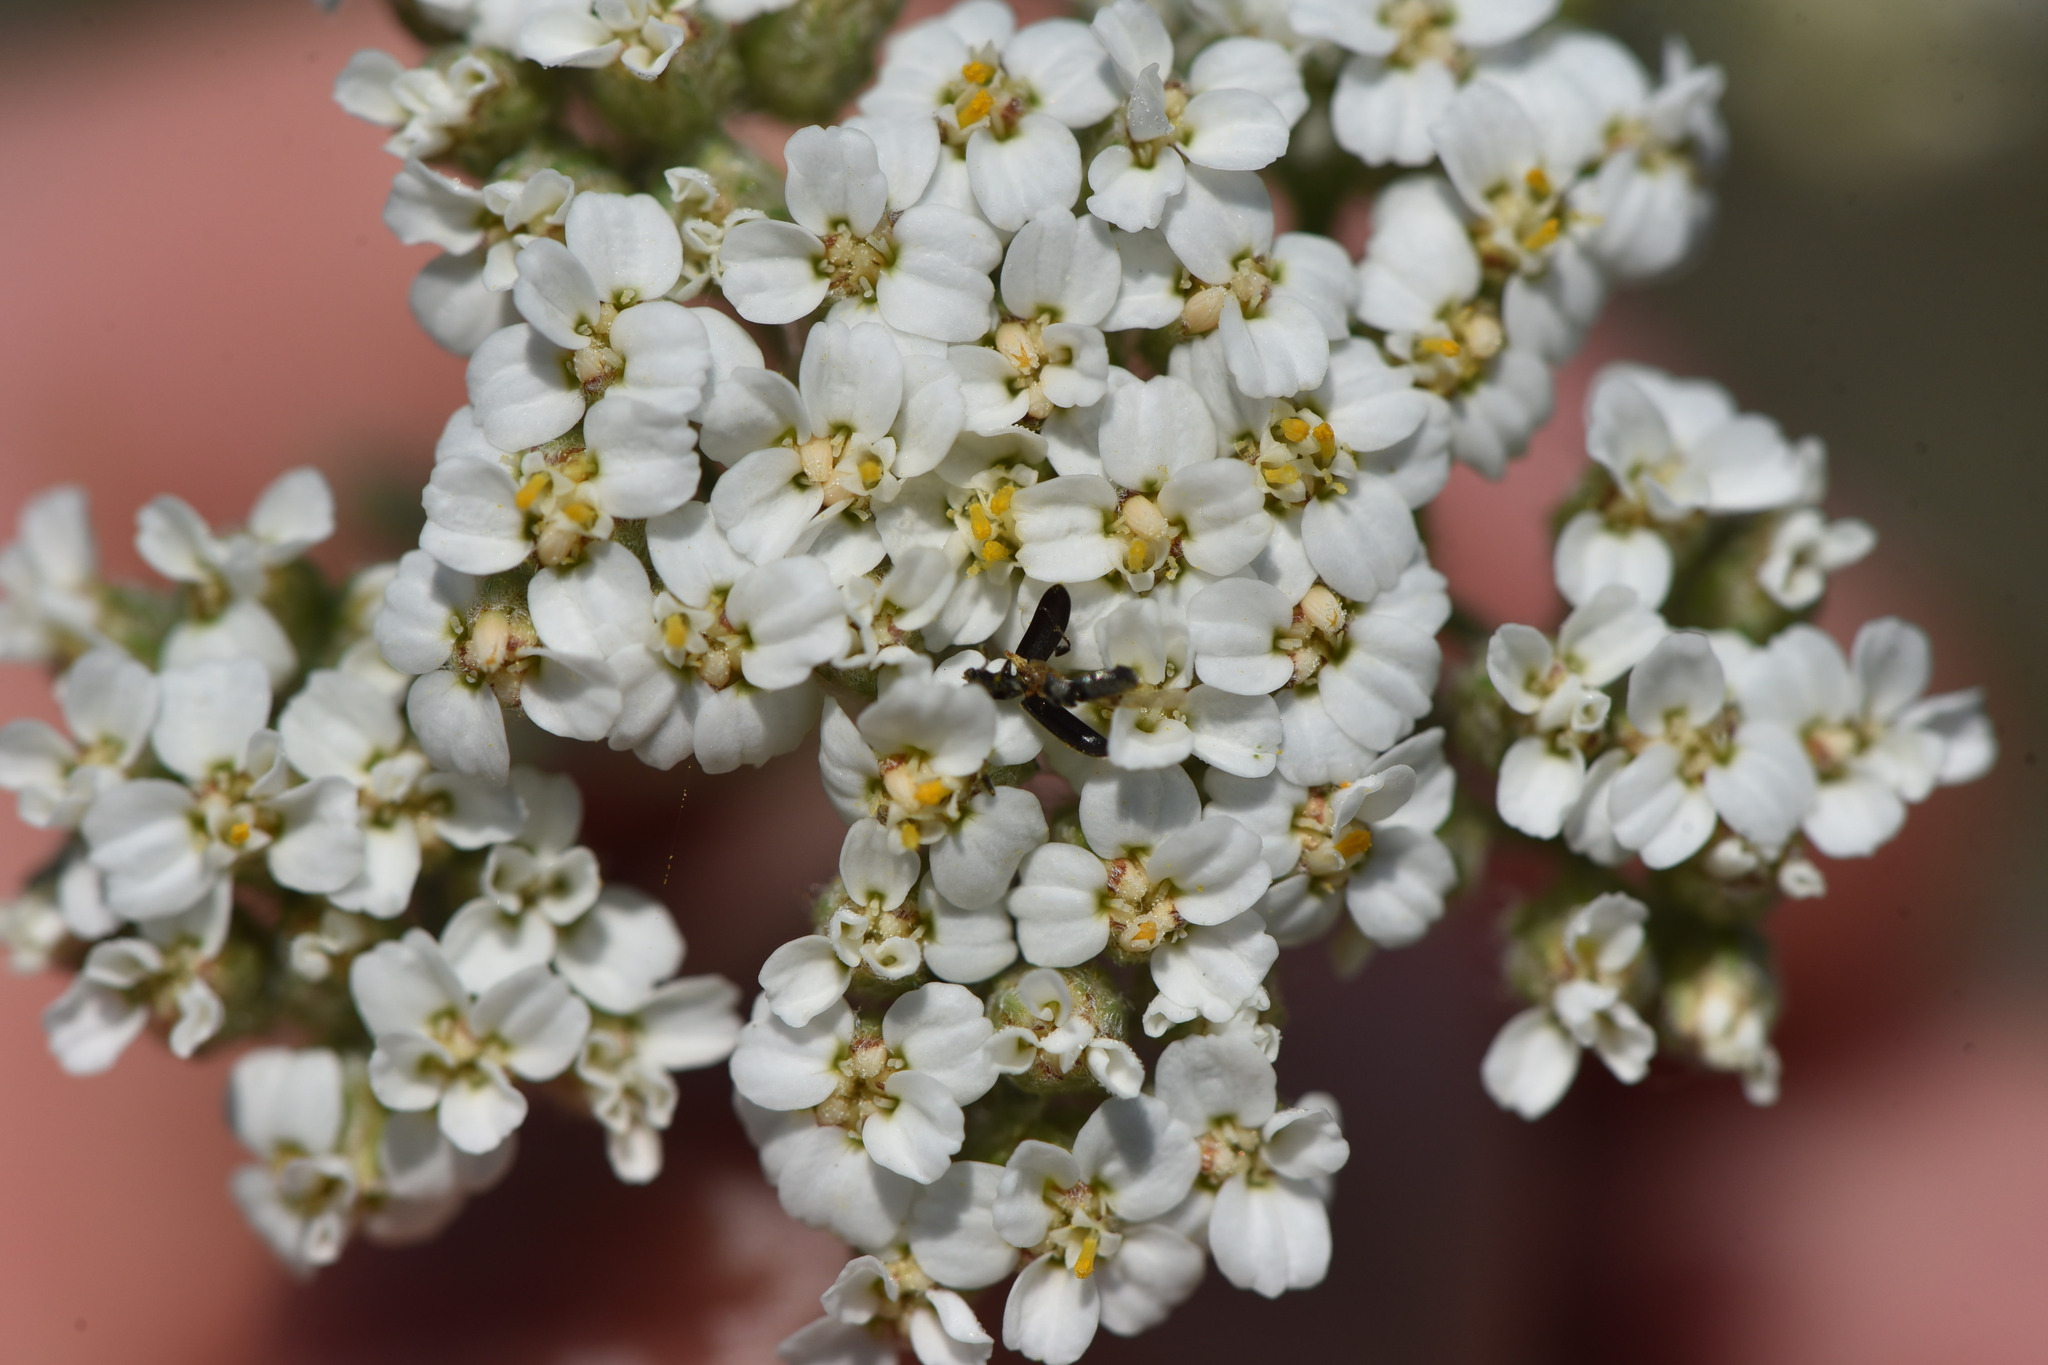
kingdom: Plantae
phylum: Tracheophyta
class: Magnoliopsida
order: Asterales
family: Asteraceae
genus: Achillea
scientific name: Achillea millefolium
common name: Yarrow
